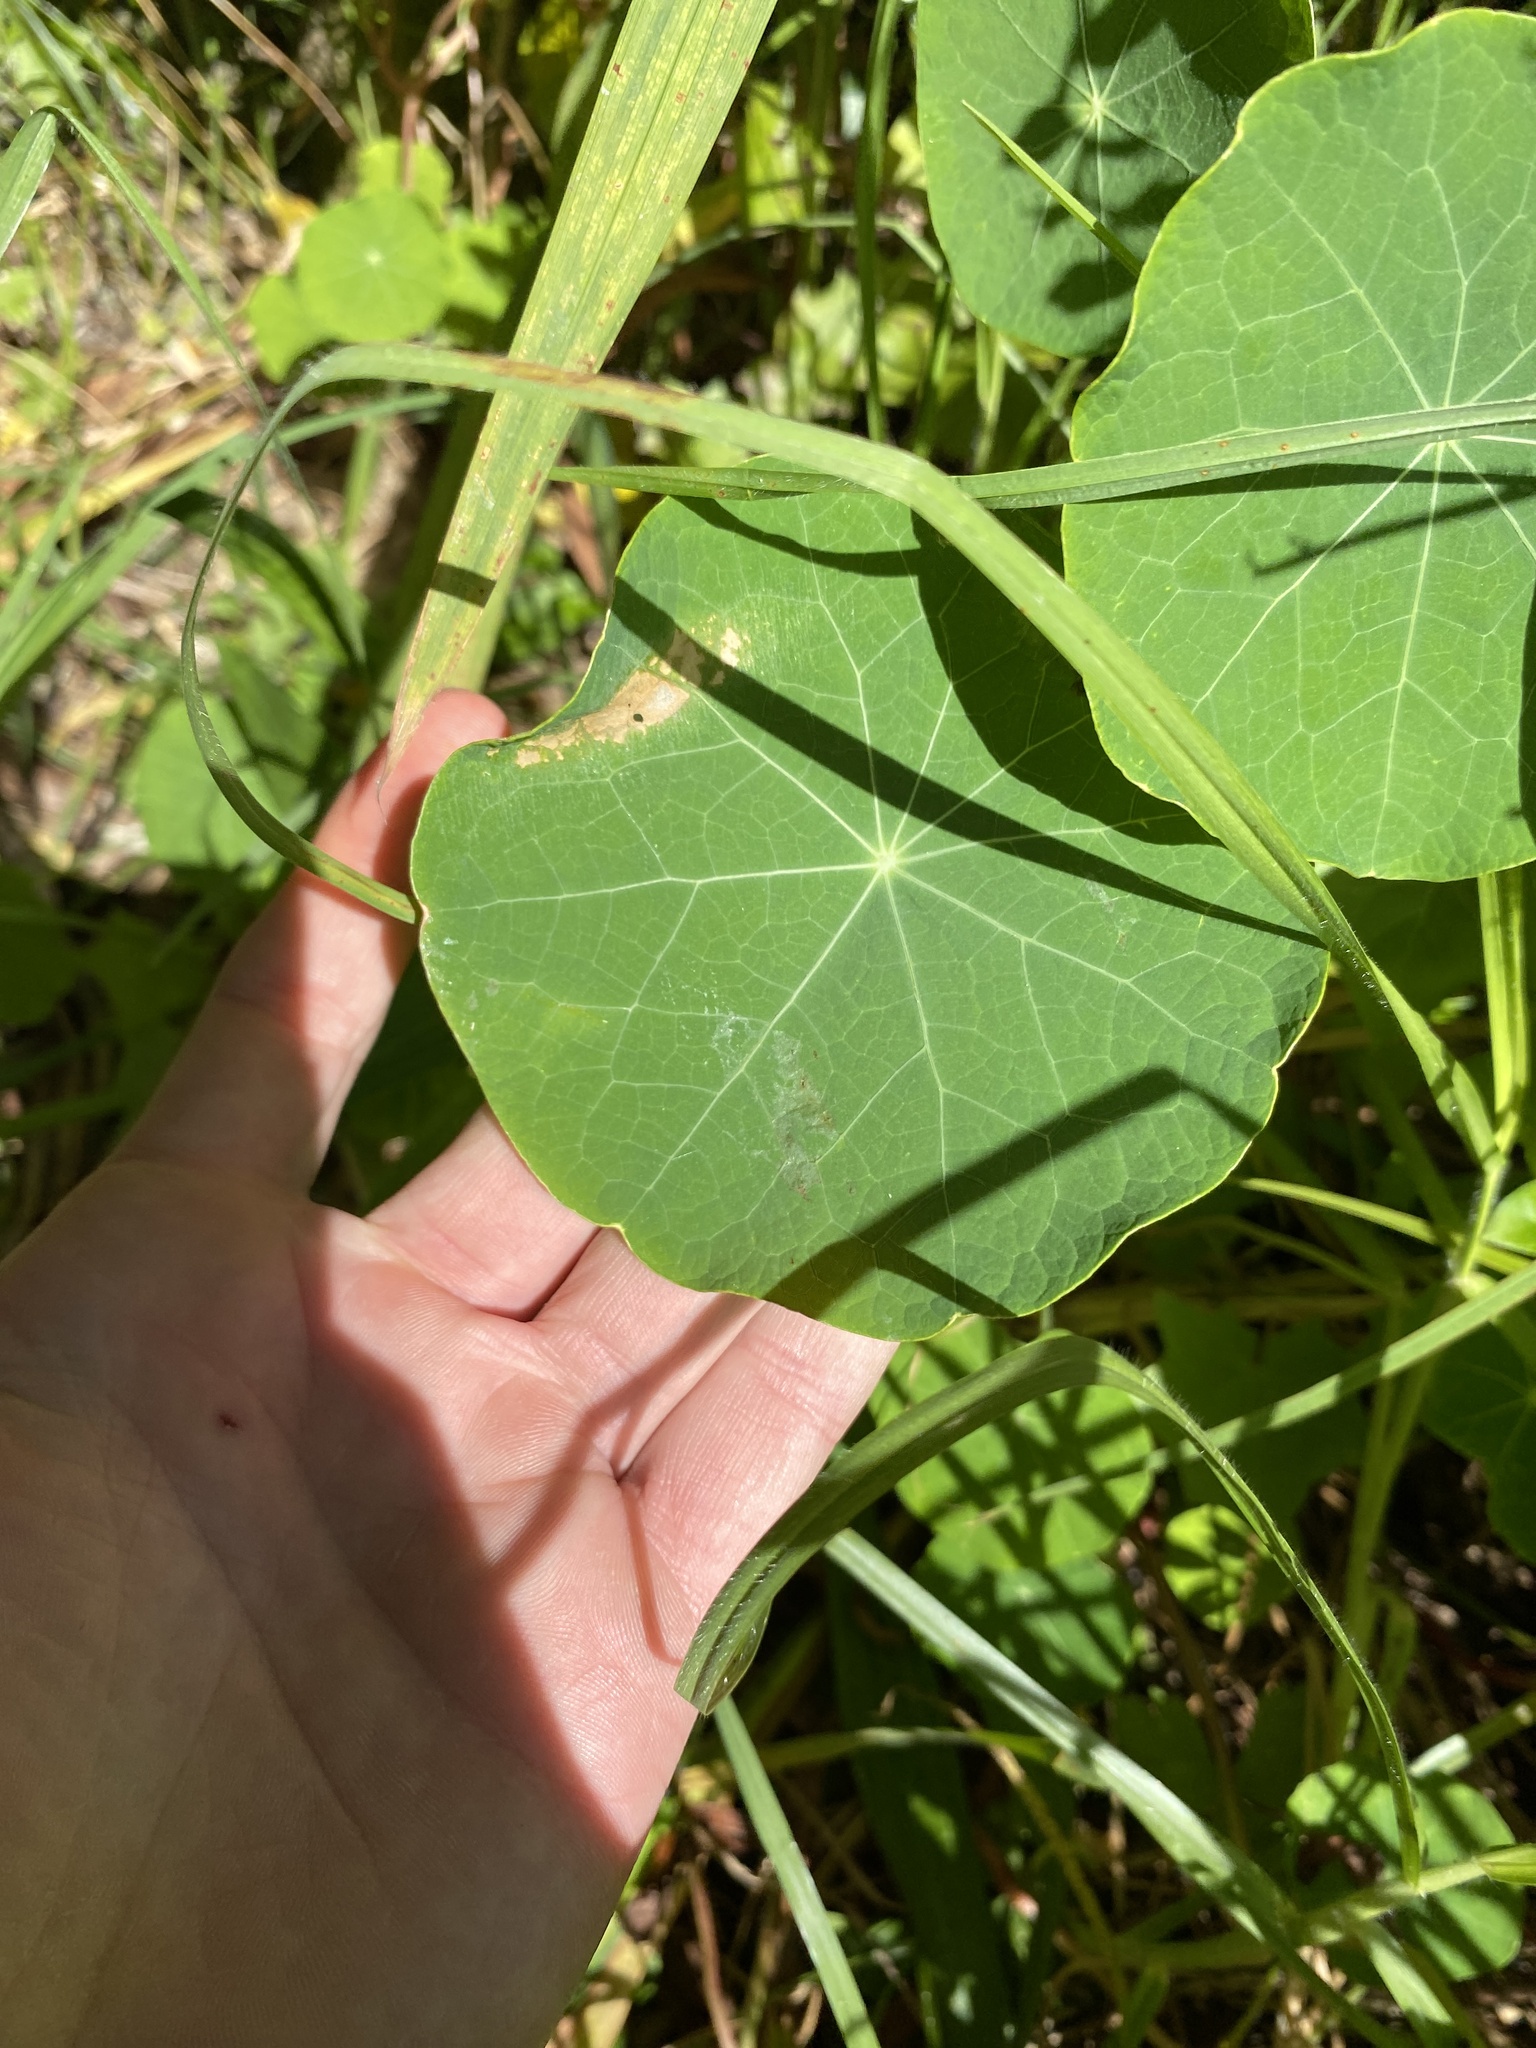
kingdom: Plantae
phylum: Tracheophyta
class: Magnoliopsida
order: Brassicales
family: Tropaeolaceae
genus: Tropaeolum
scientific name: Tropaeolum majus
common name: Nasturtium
